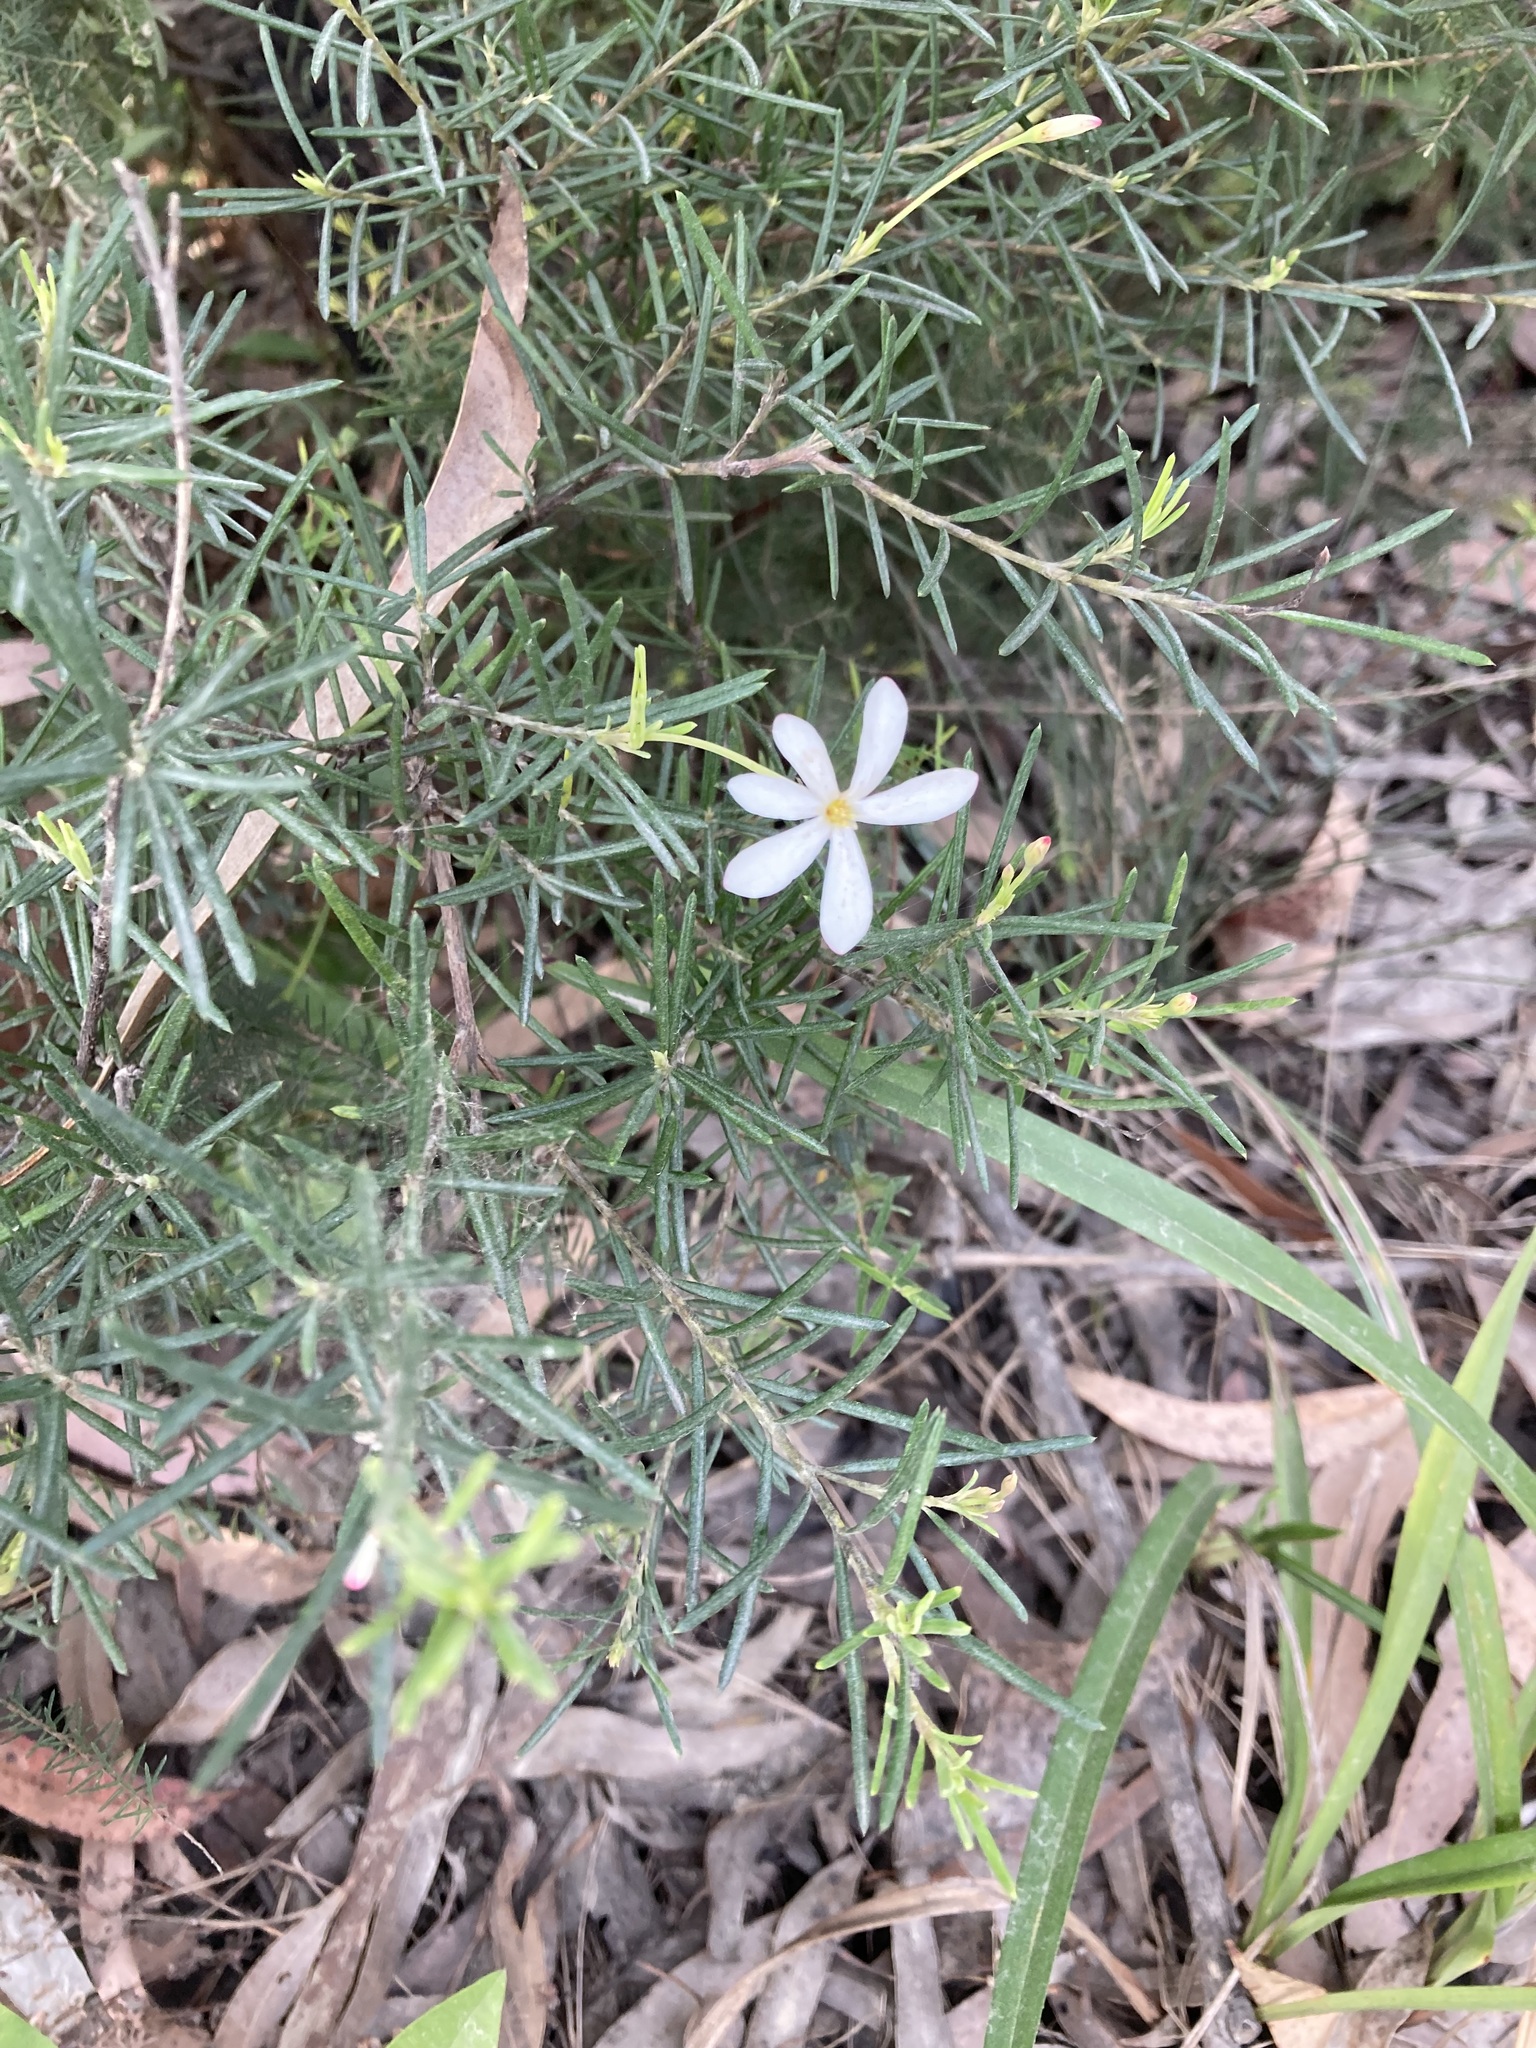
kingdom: Plantae
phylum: Tracheophyta
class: Magnoliopsida
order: Malpighiales
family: Euphorbiaceae
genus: Ricinocarpos
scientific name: Ricinocarpos pinifolius
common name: Weddingbush
